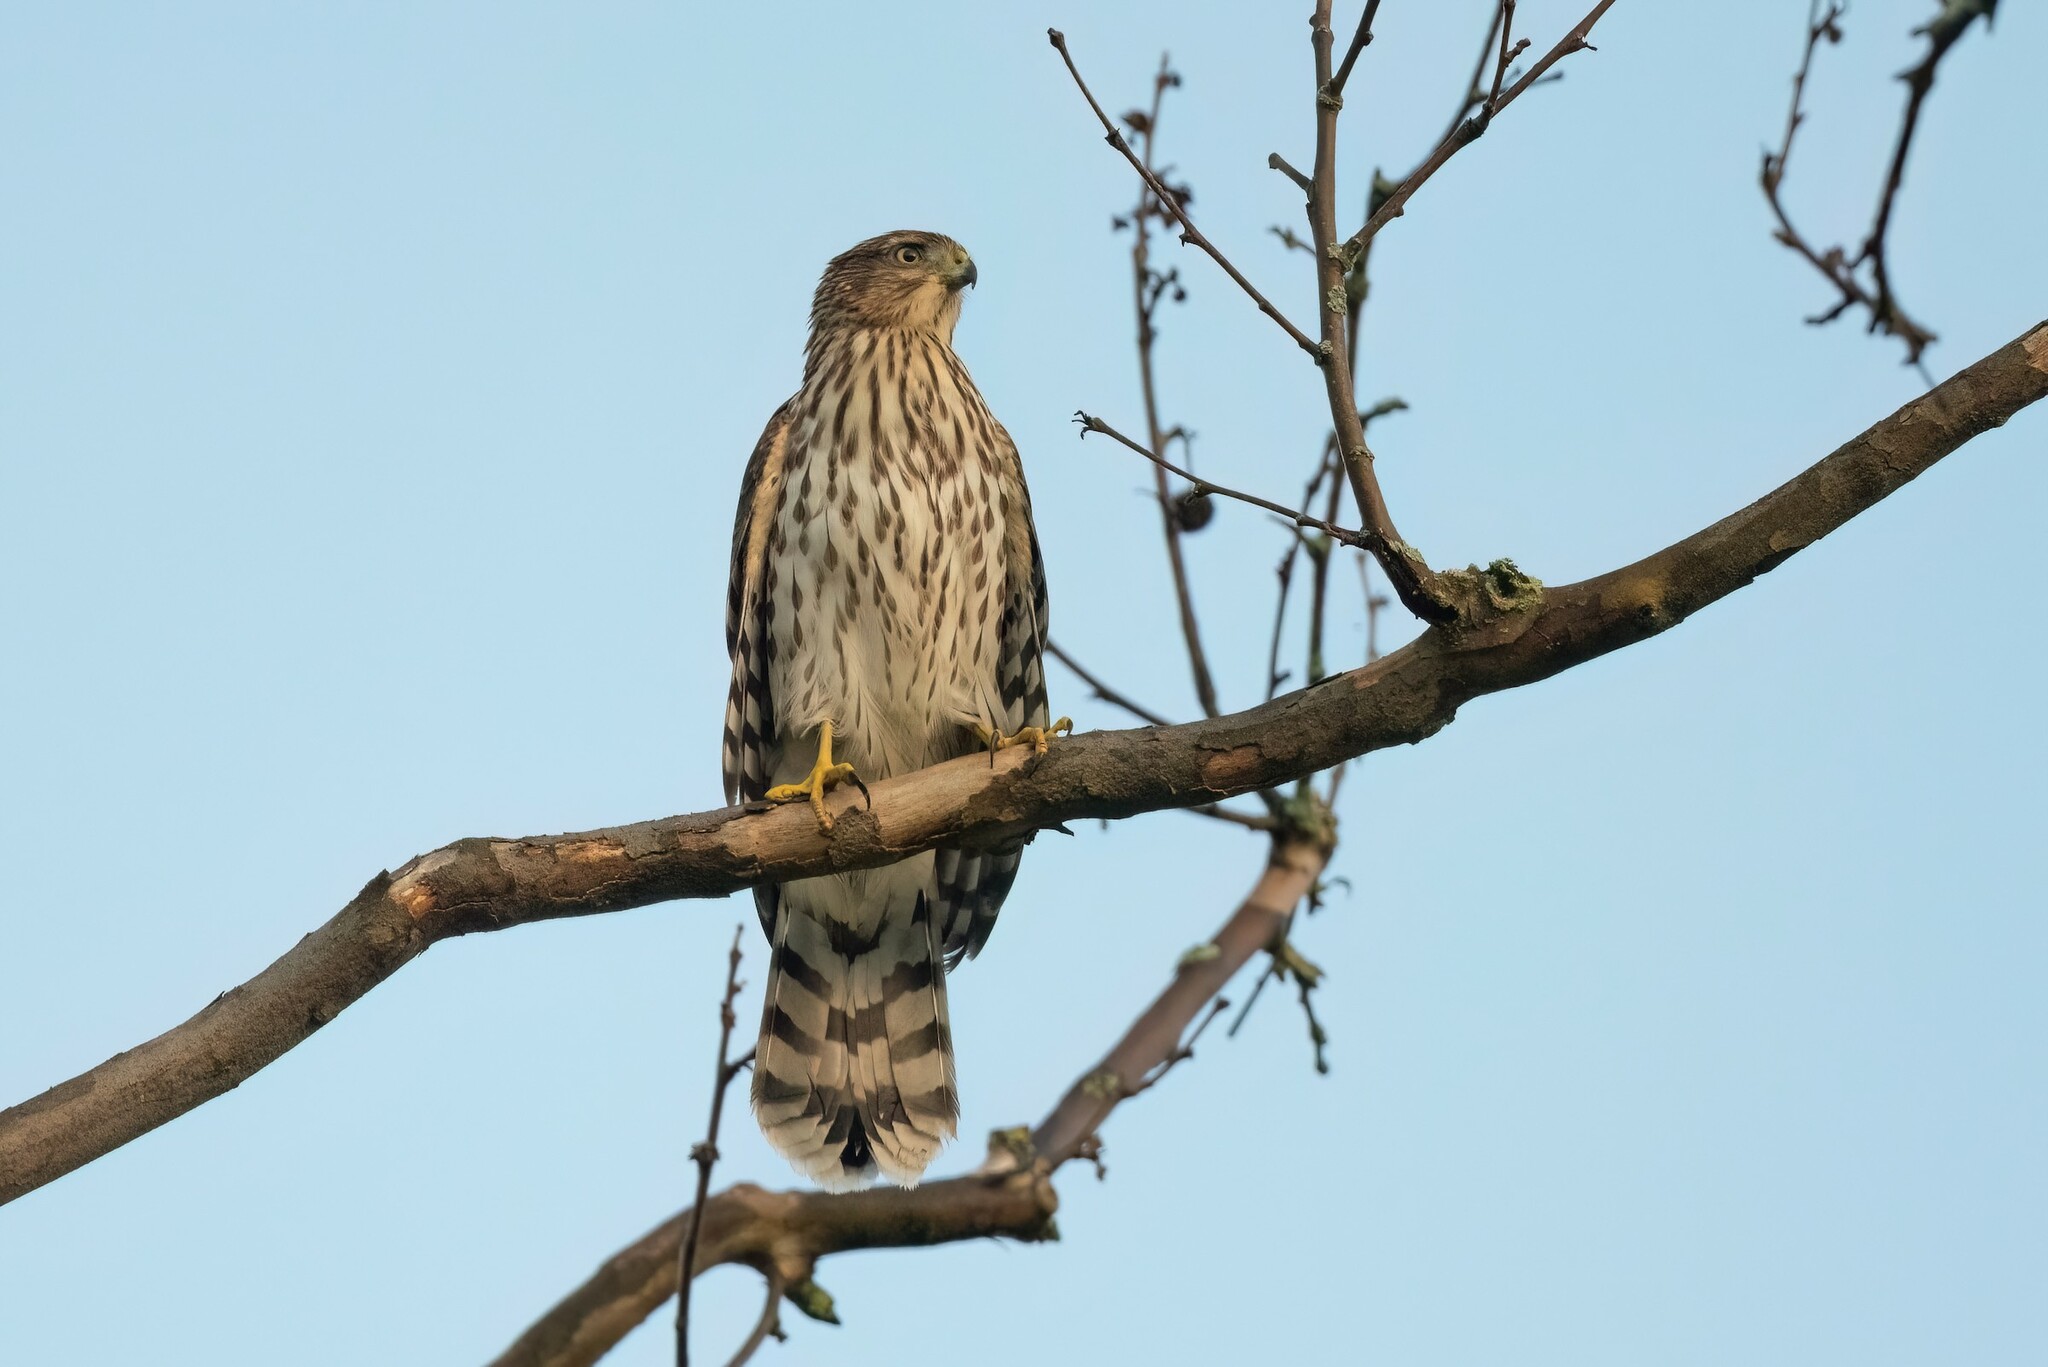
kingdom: Animalia
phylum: Chordata
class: Aves
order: Accipitriformes
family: Accipitridae
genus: Accipiter
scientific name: Accipiter cooperii
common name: Cooper's hawk
